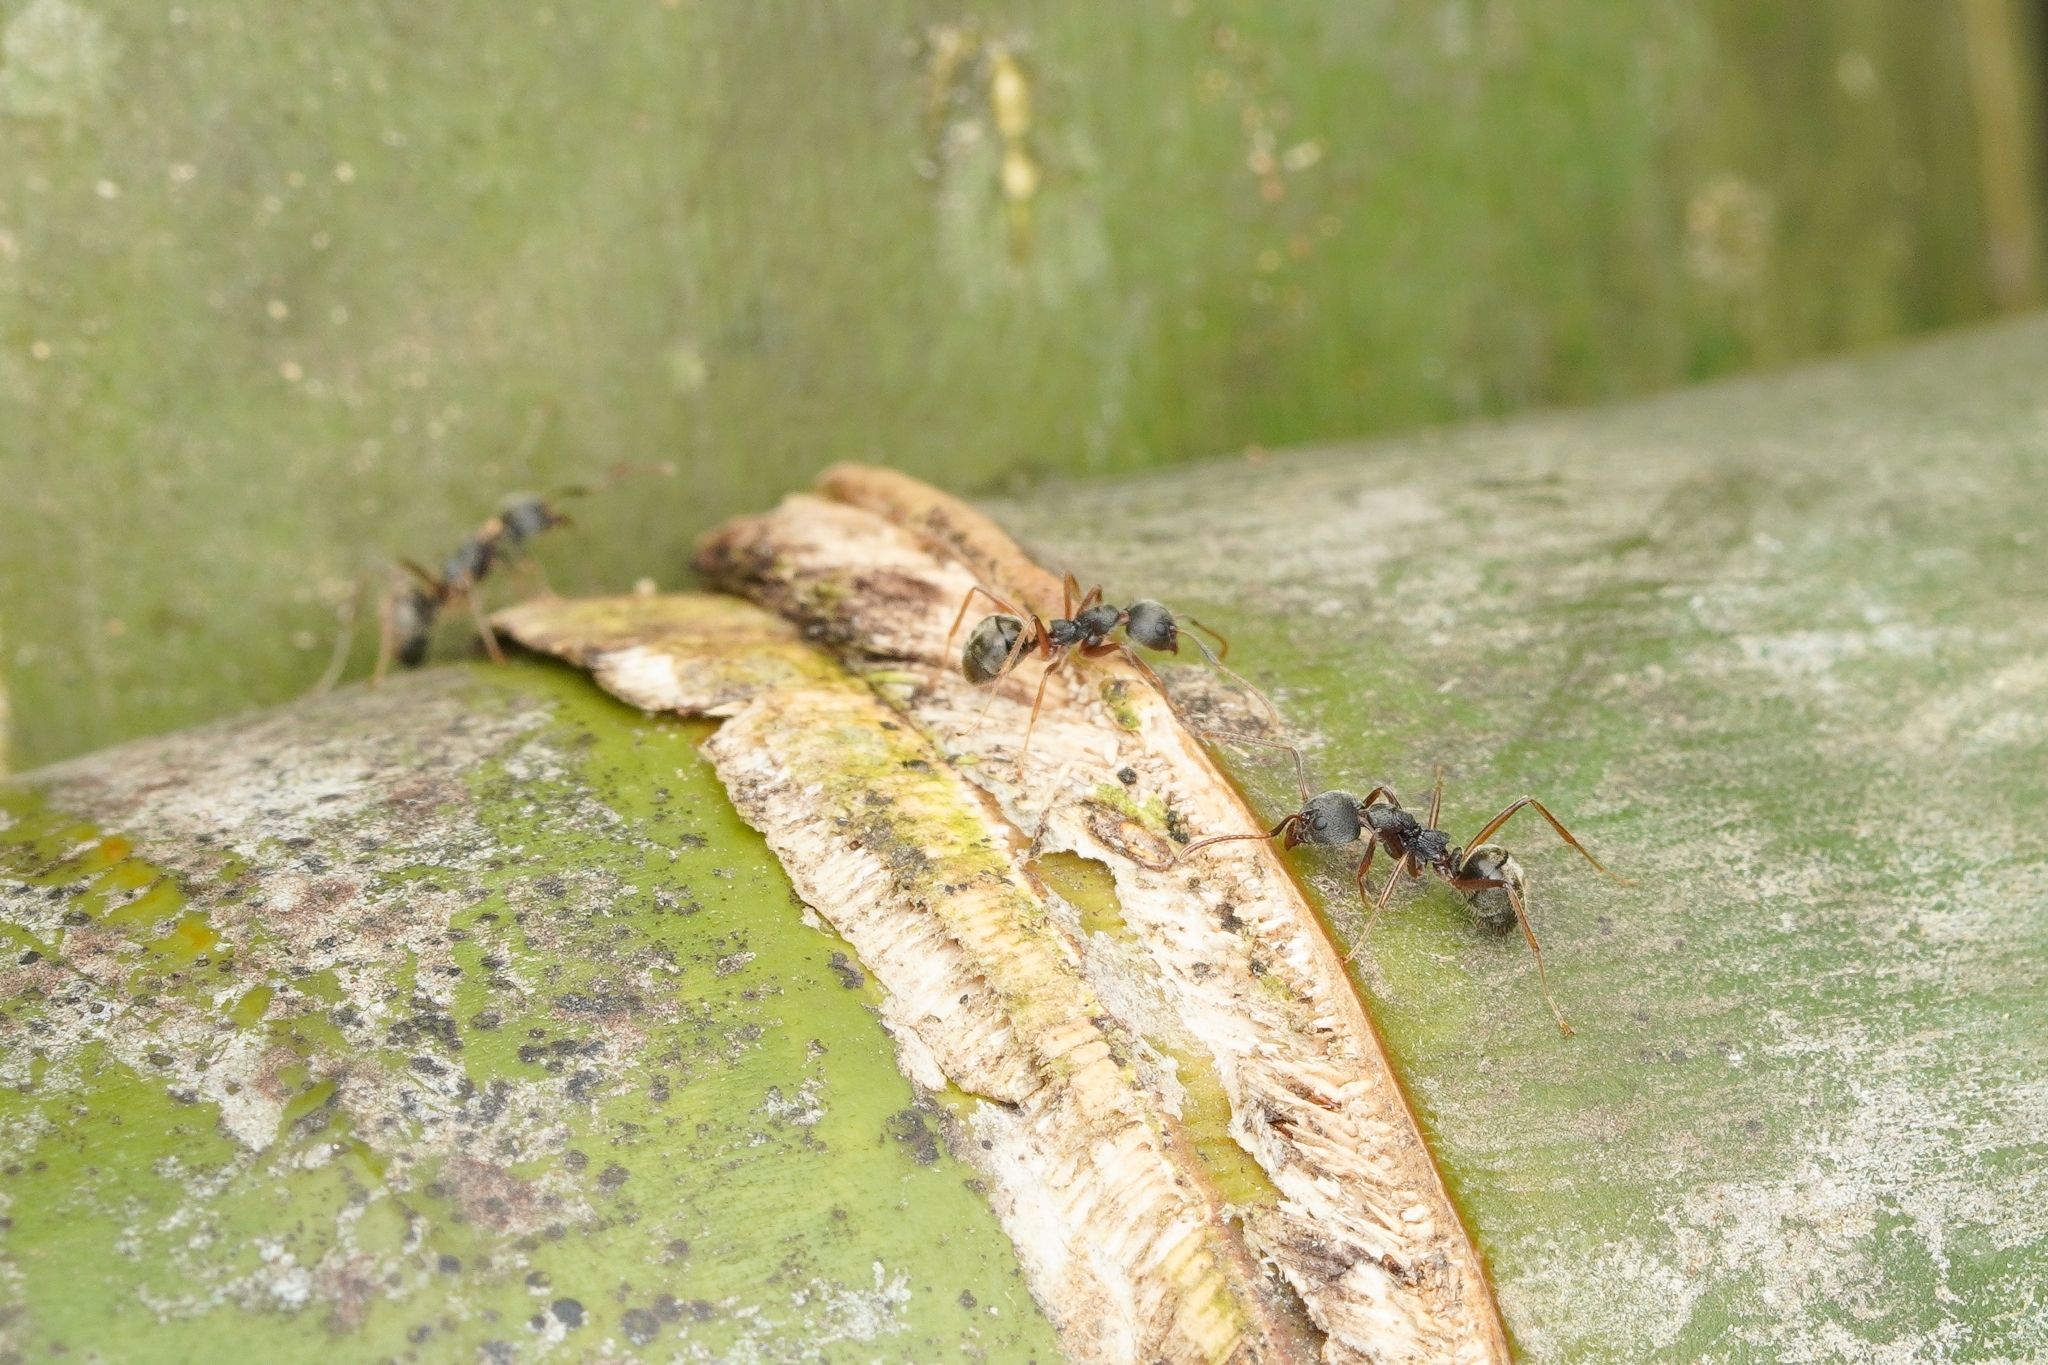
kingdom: Animalia
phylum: Arthropoda
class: Insecta
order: Hymenoptera
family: Formicidae
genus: Dolichoderus
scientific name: Dolichoderus affinis
